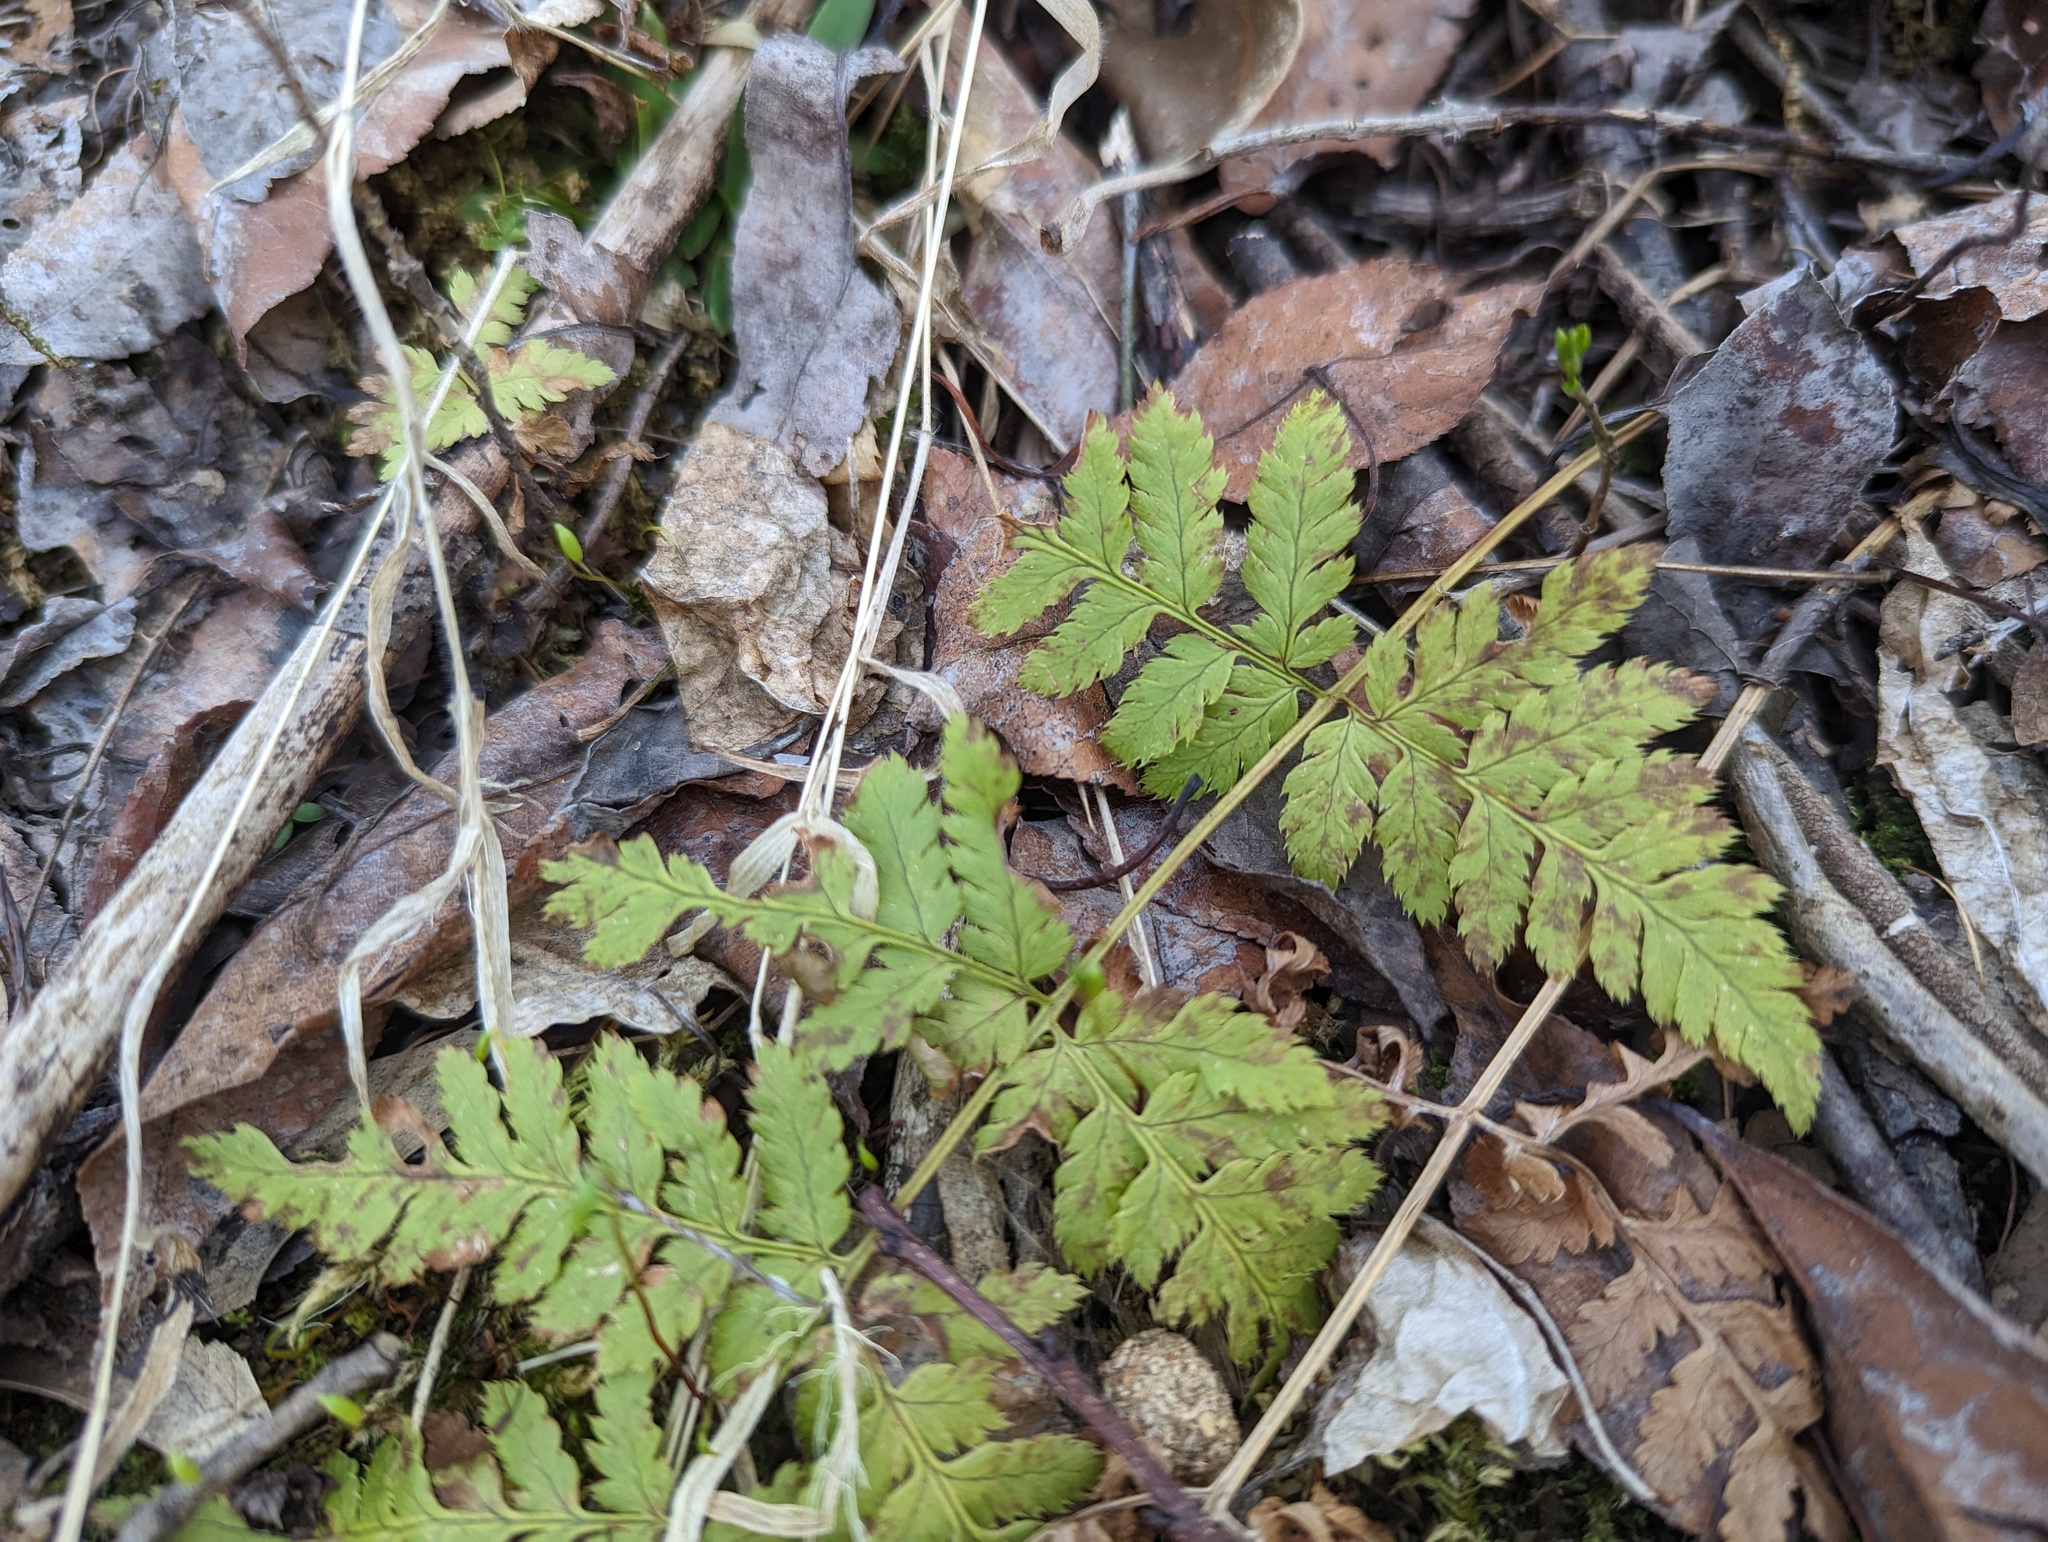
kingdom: Plantae
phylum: Tracheophyta
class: Polypodiopsida
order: Polypodiales
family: Dryopteridaceae
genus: Dryopteris
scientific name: Dryopteris carthusiana
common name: Narrow buckler-fern
